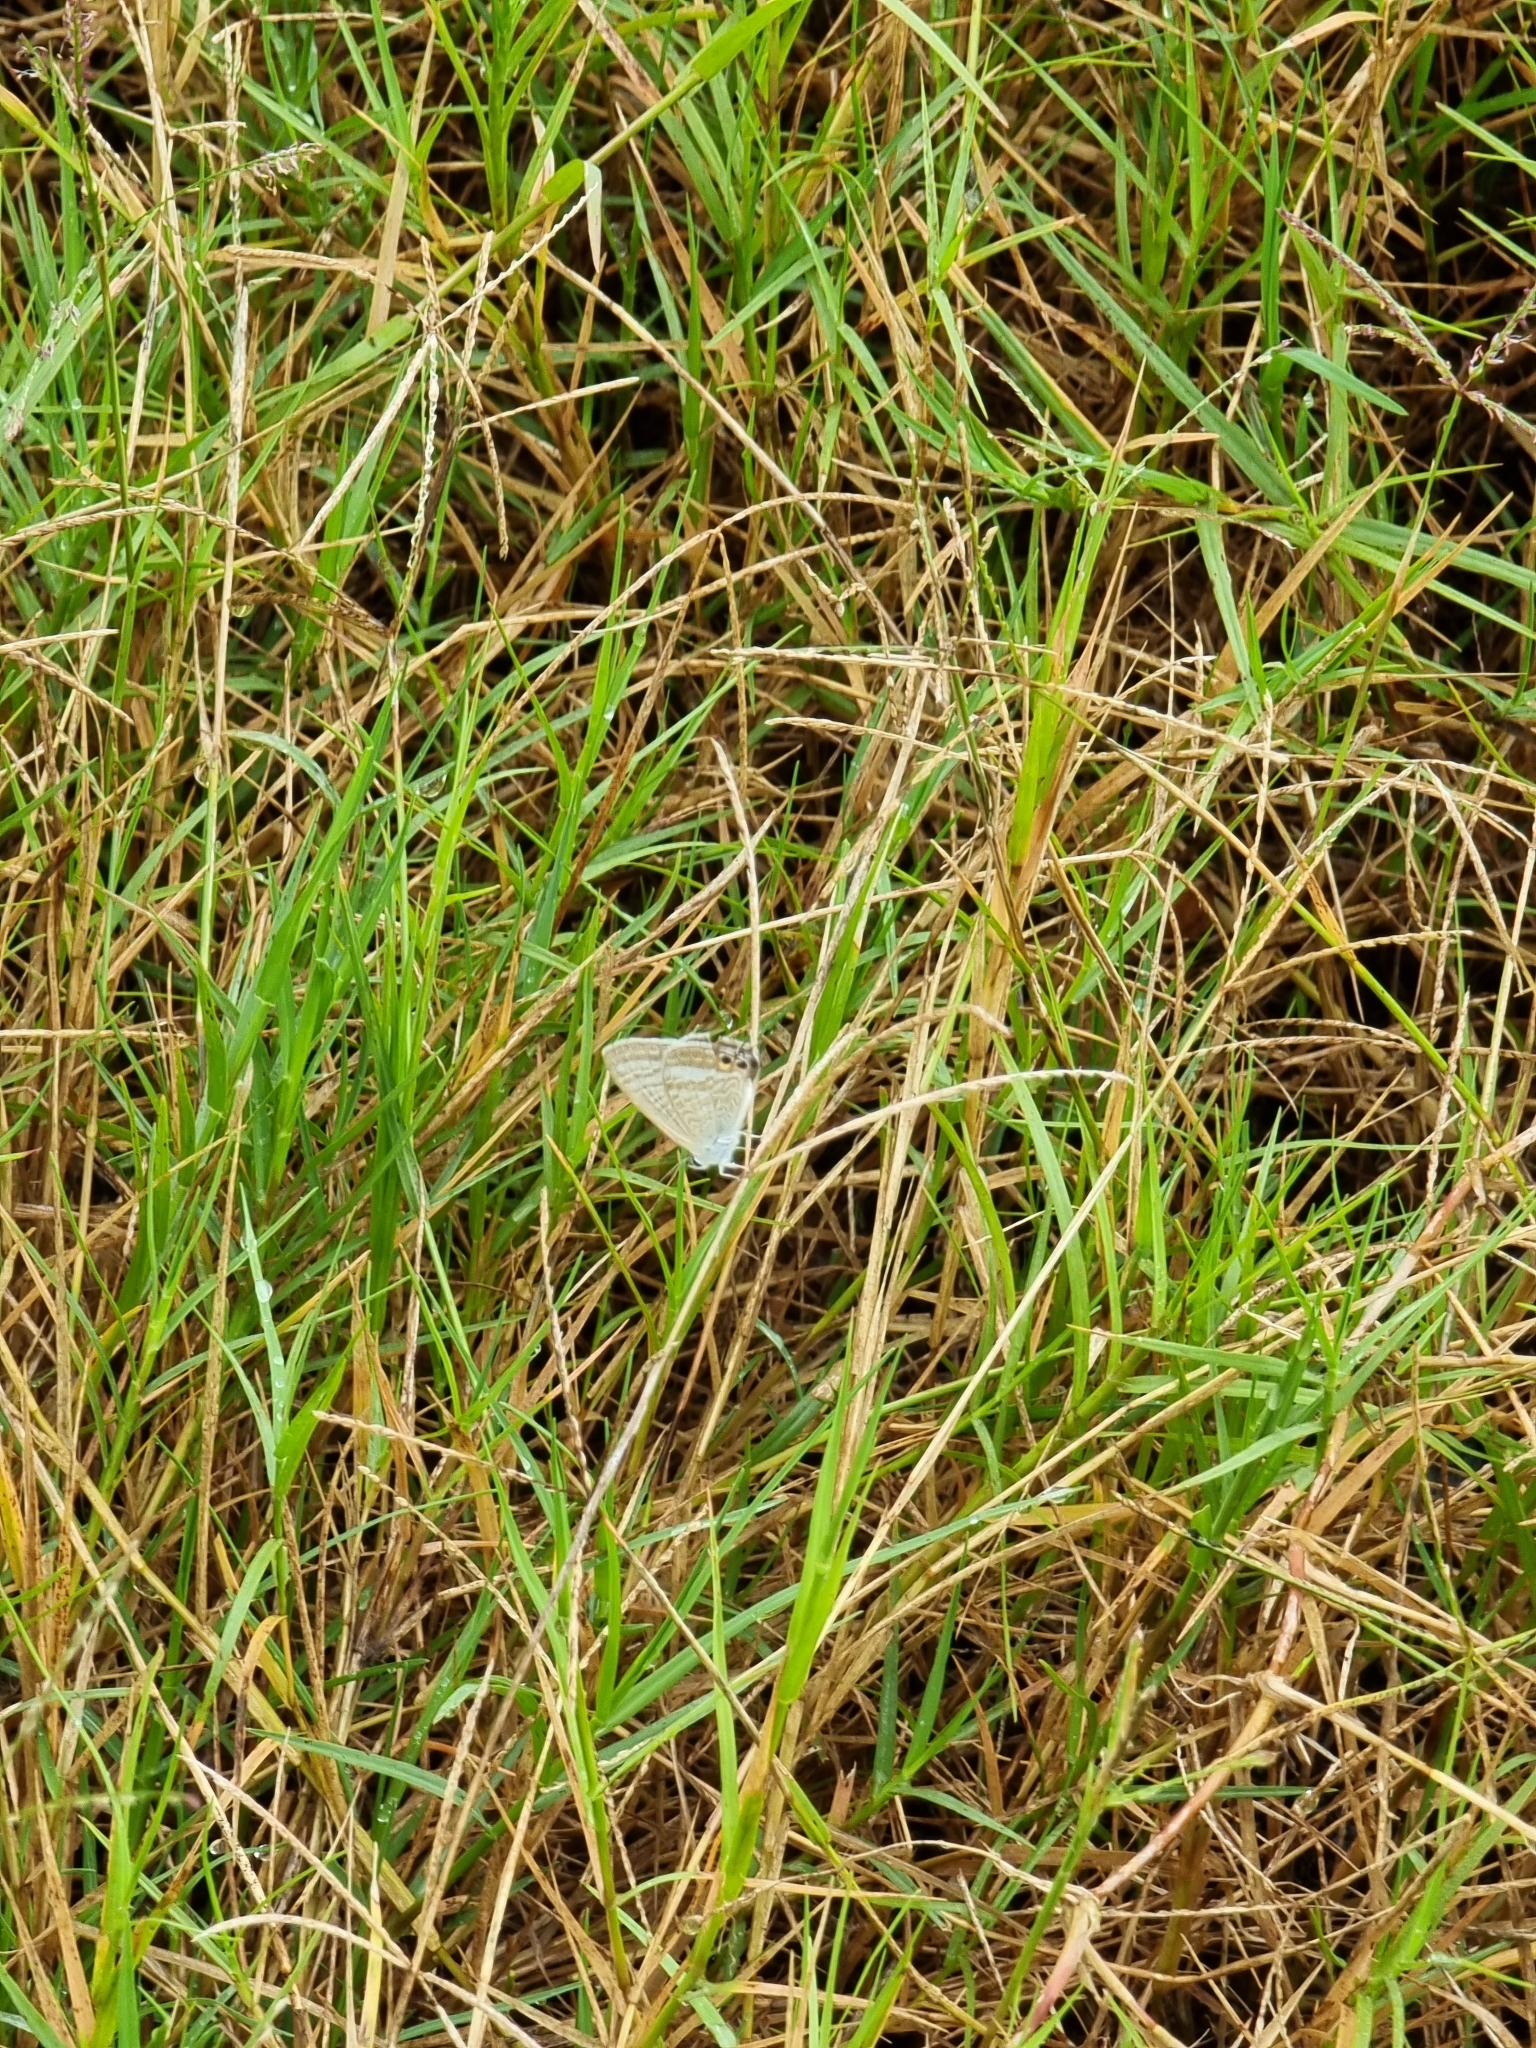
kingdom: Animalia
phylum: Arthropoda
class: Insecta
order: Lepidoptera
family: Lycaenidae
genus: Lampides
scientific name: Lampides boeticus
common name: Long-tailed blue
